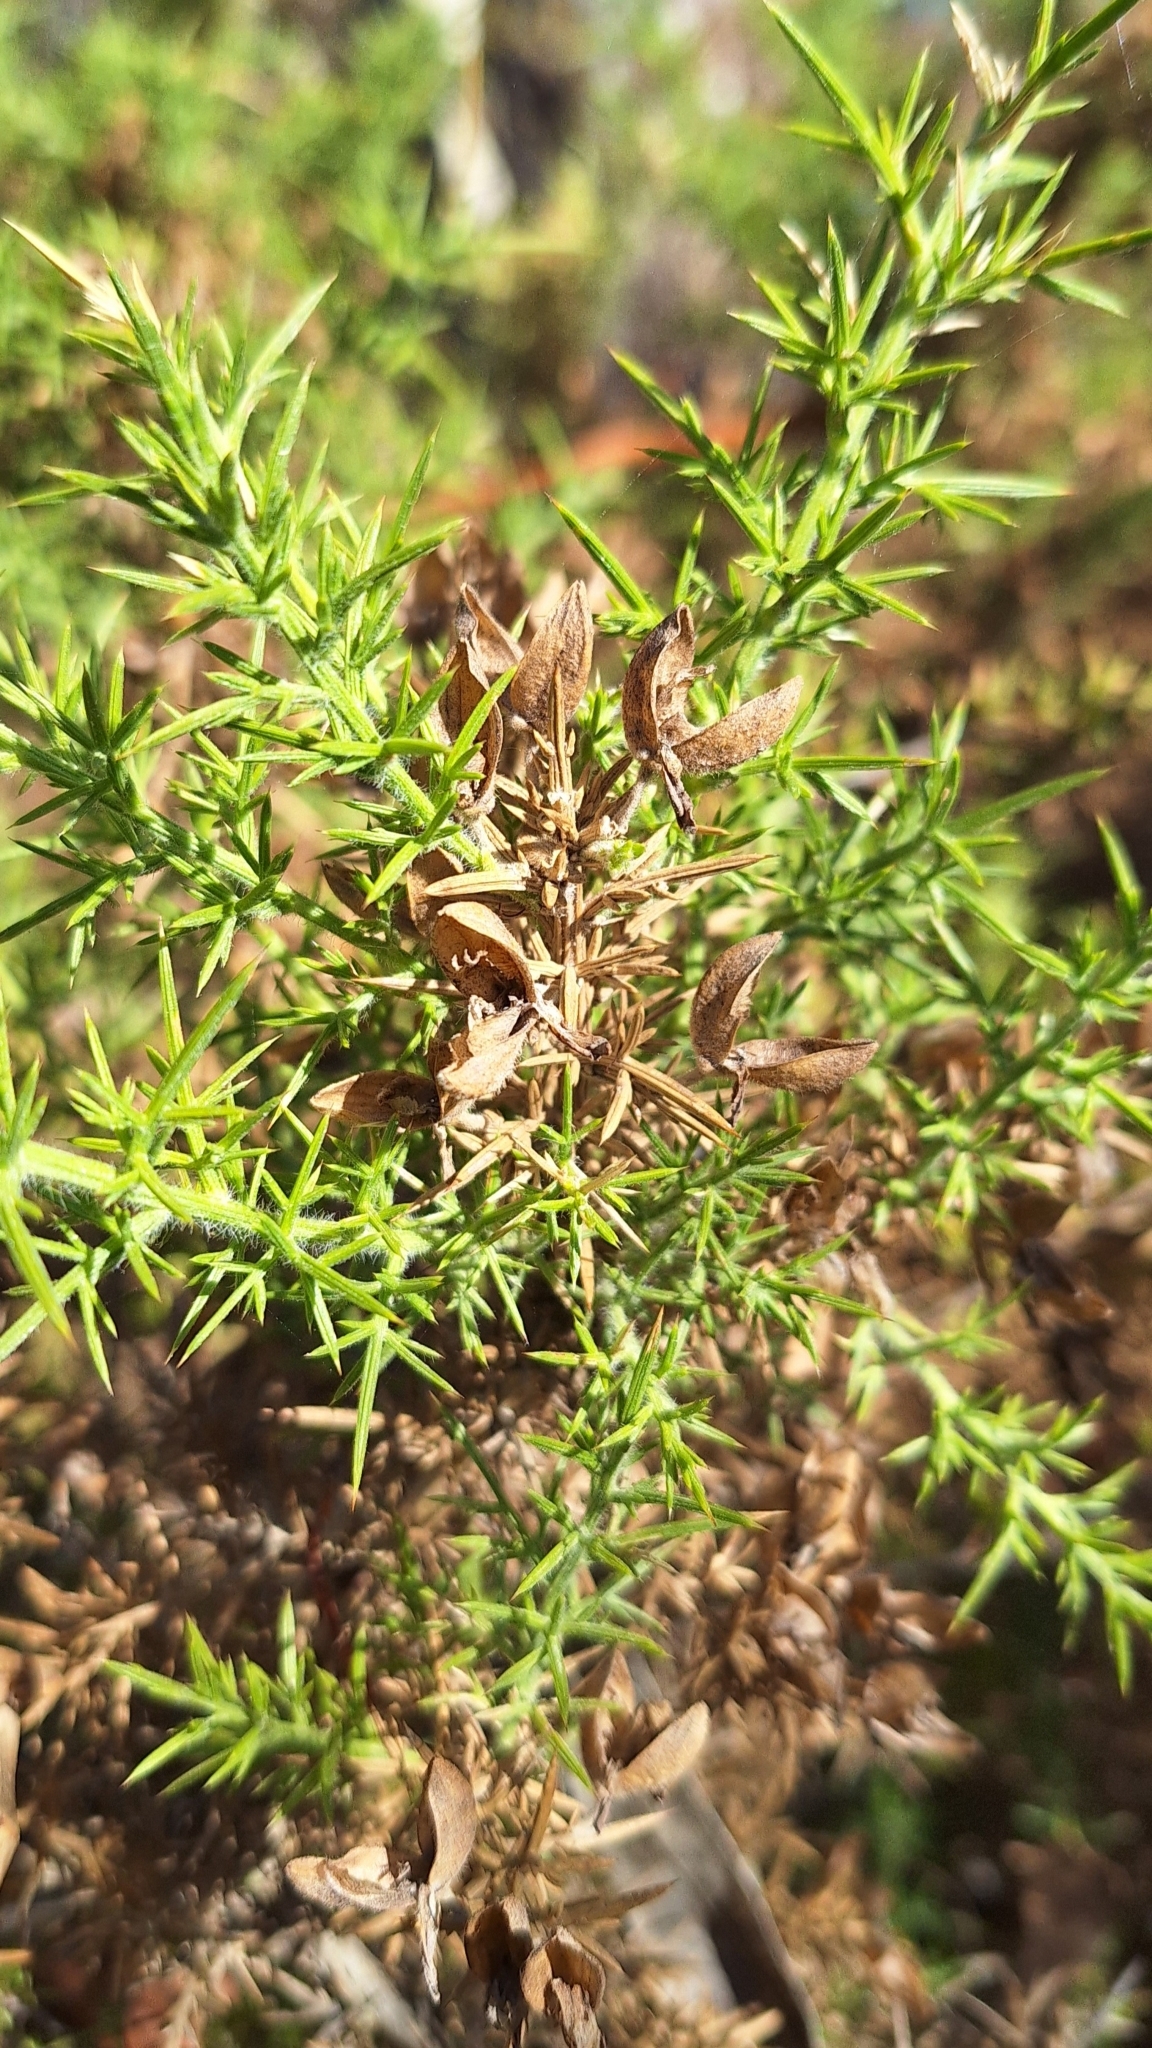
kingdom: Plantae
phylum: Tracheophyta
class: Magnoliopsida
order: Fabales
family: Fabaceae
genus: Ulex
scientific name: Ulex europaeus
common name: Common gorse
